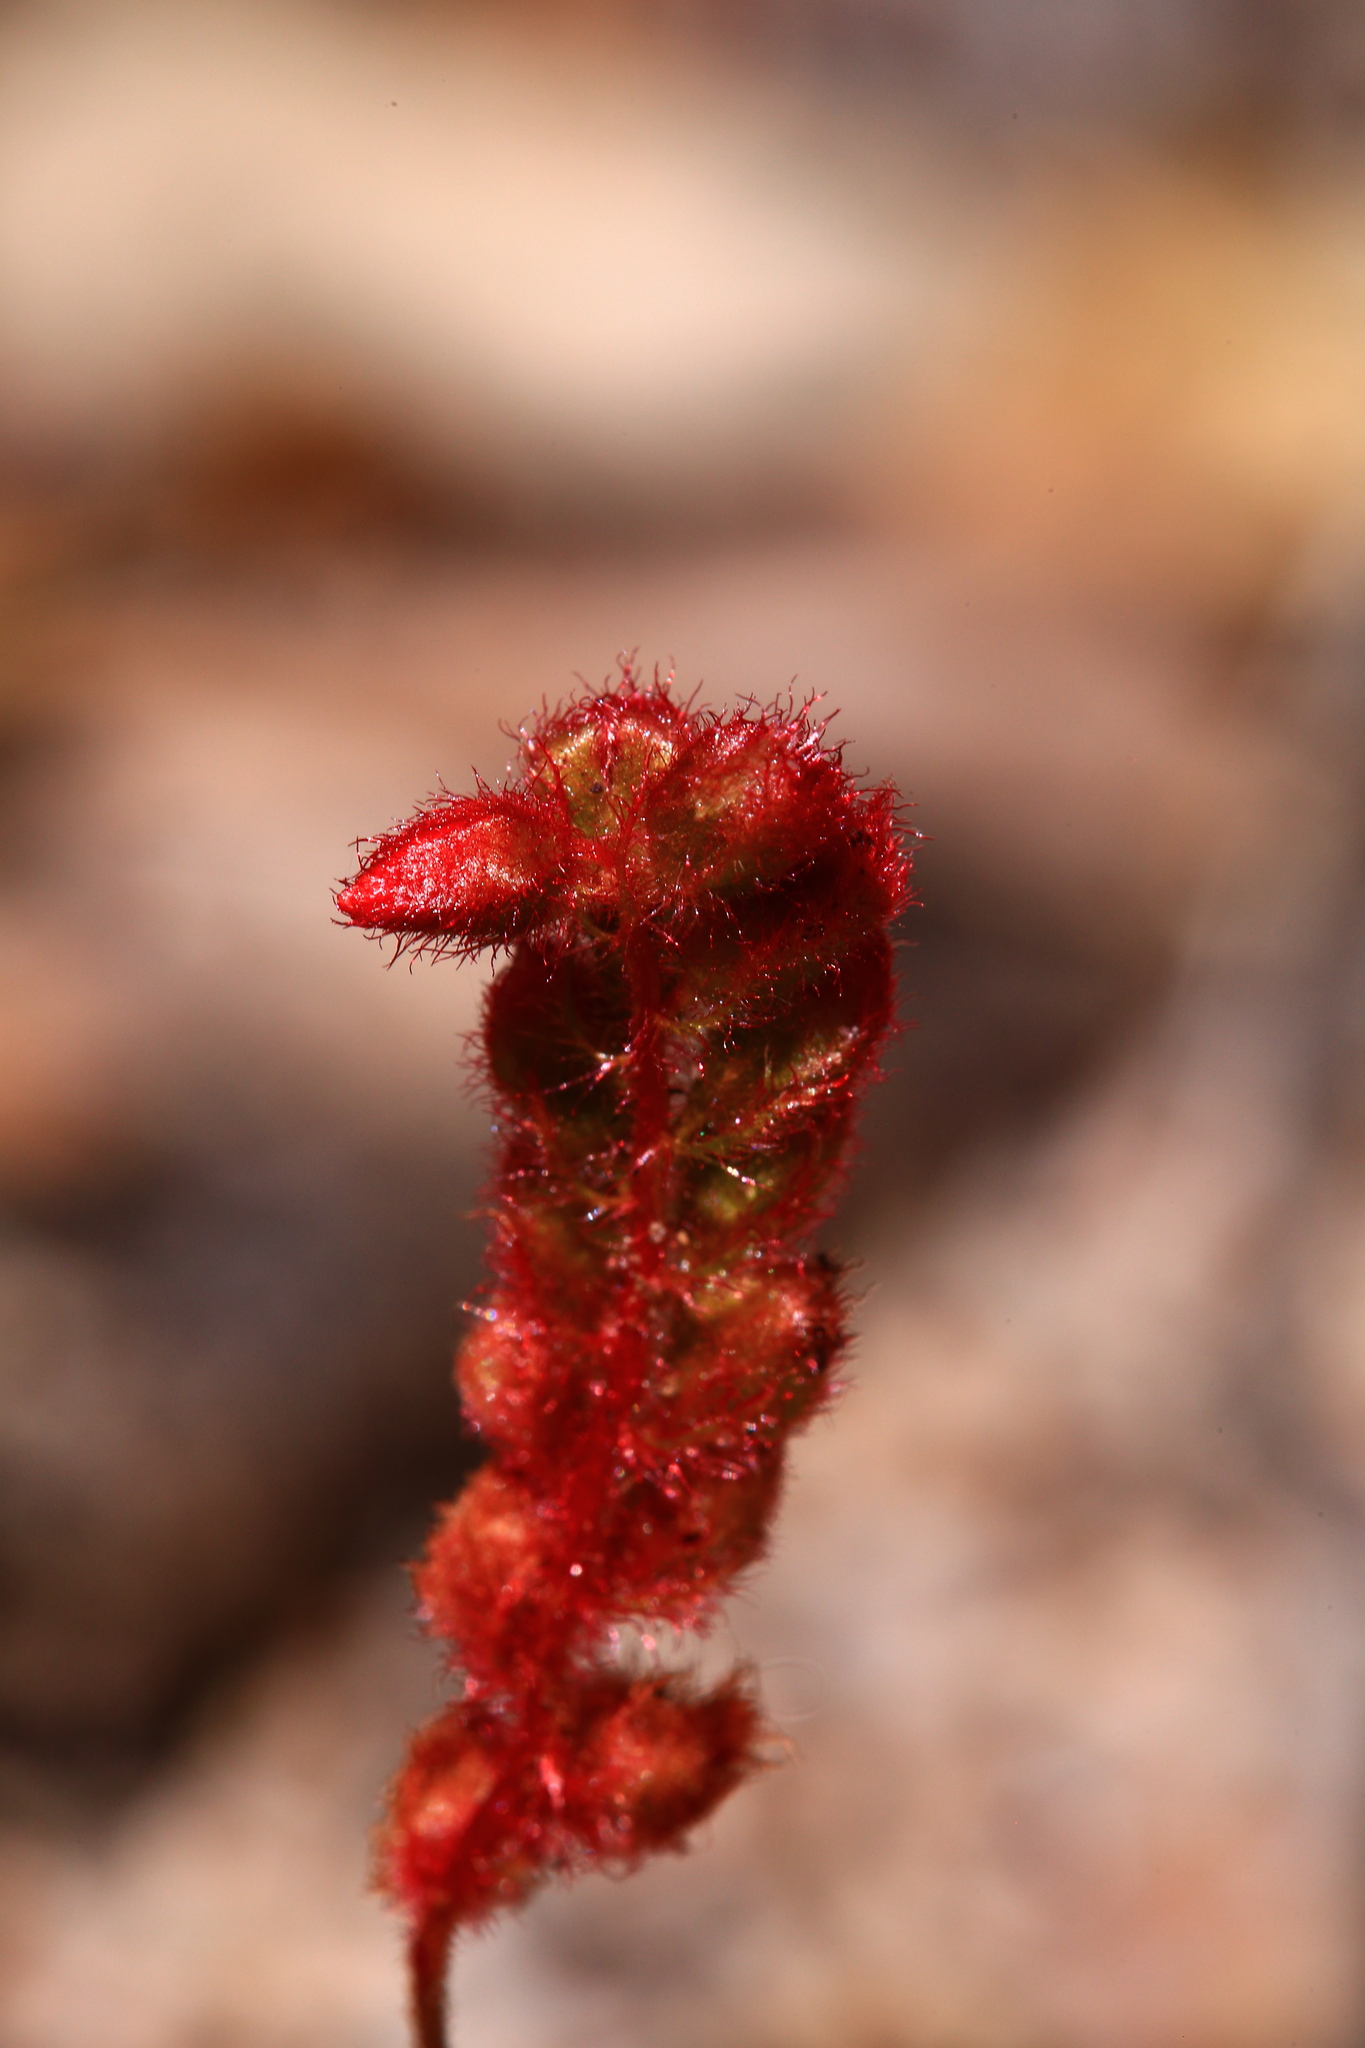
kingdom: Plantae
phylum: Tracheophyta
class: Magnoliopsida
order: Caryophyllales
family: Droseraceae
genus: Drosera
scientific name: Drosera barbigera
